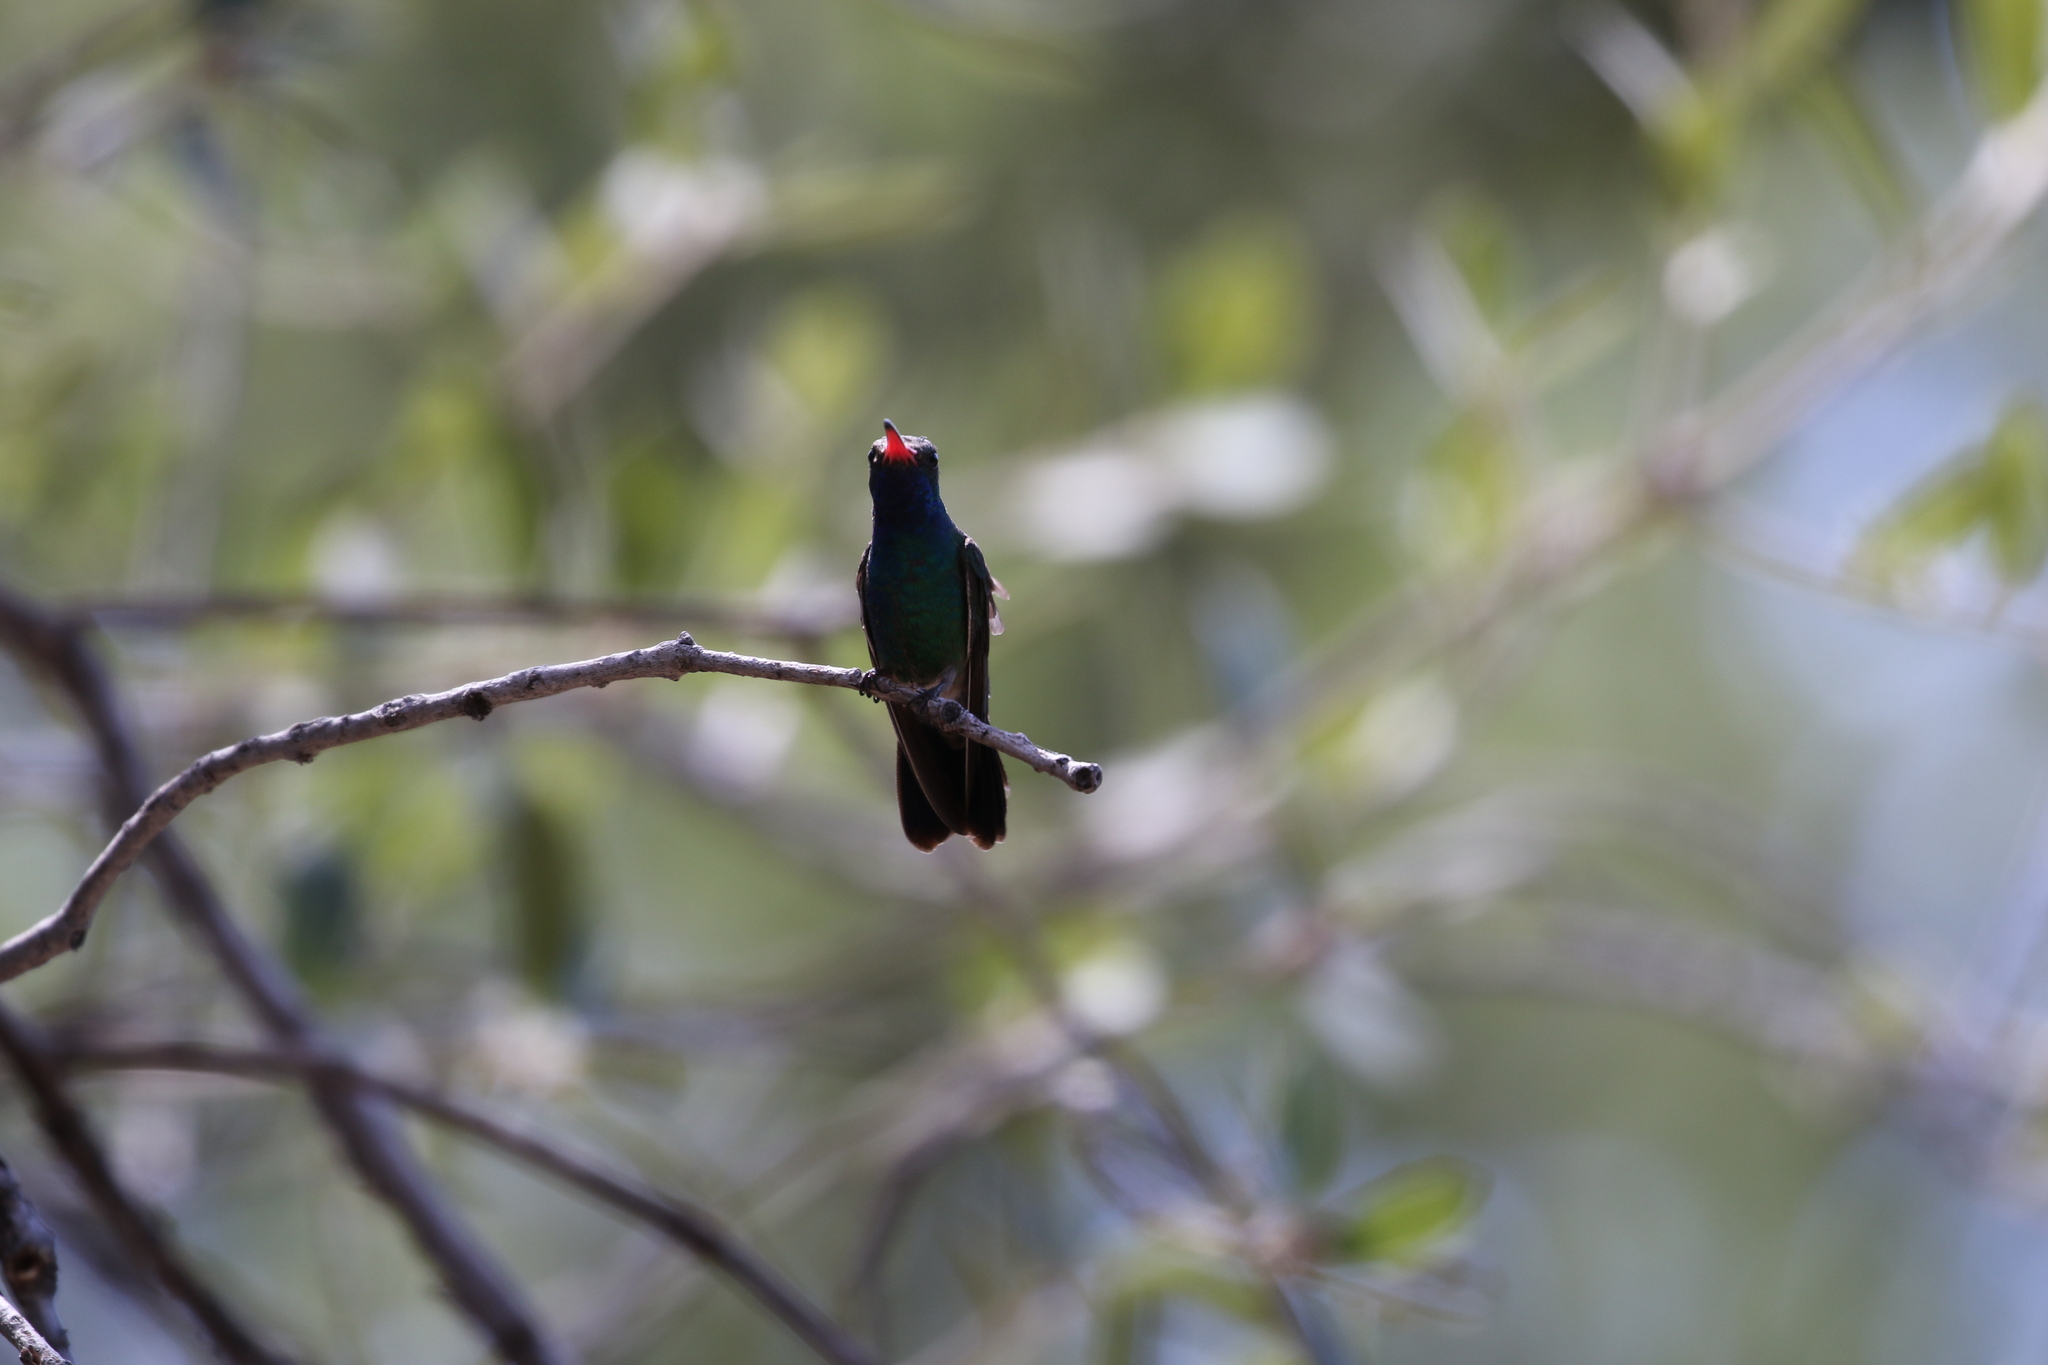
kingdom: Animalia
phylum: Chordata
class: Aves
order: Apodiformes
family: Trochilidae
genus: Cynanthus
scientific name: Cynanthus latirostris
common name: Broad-billed hummingbird
